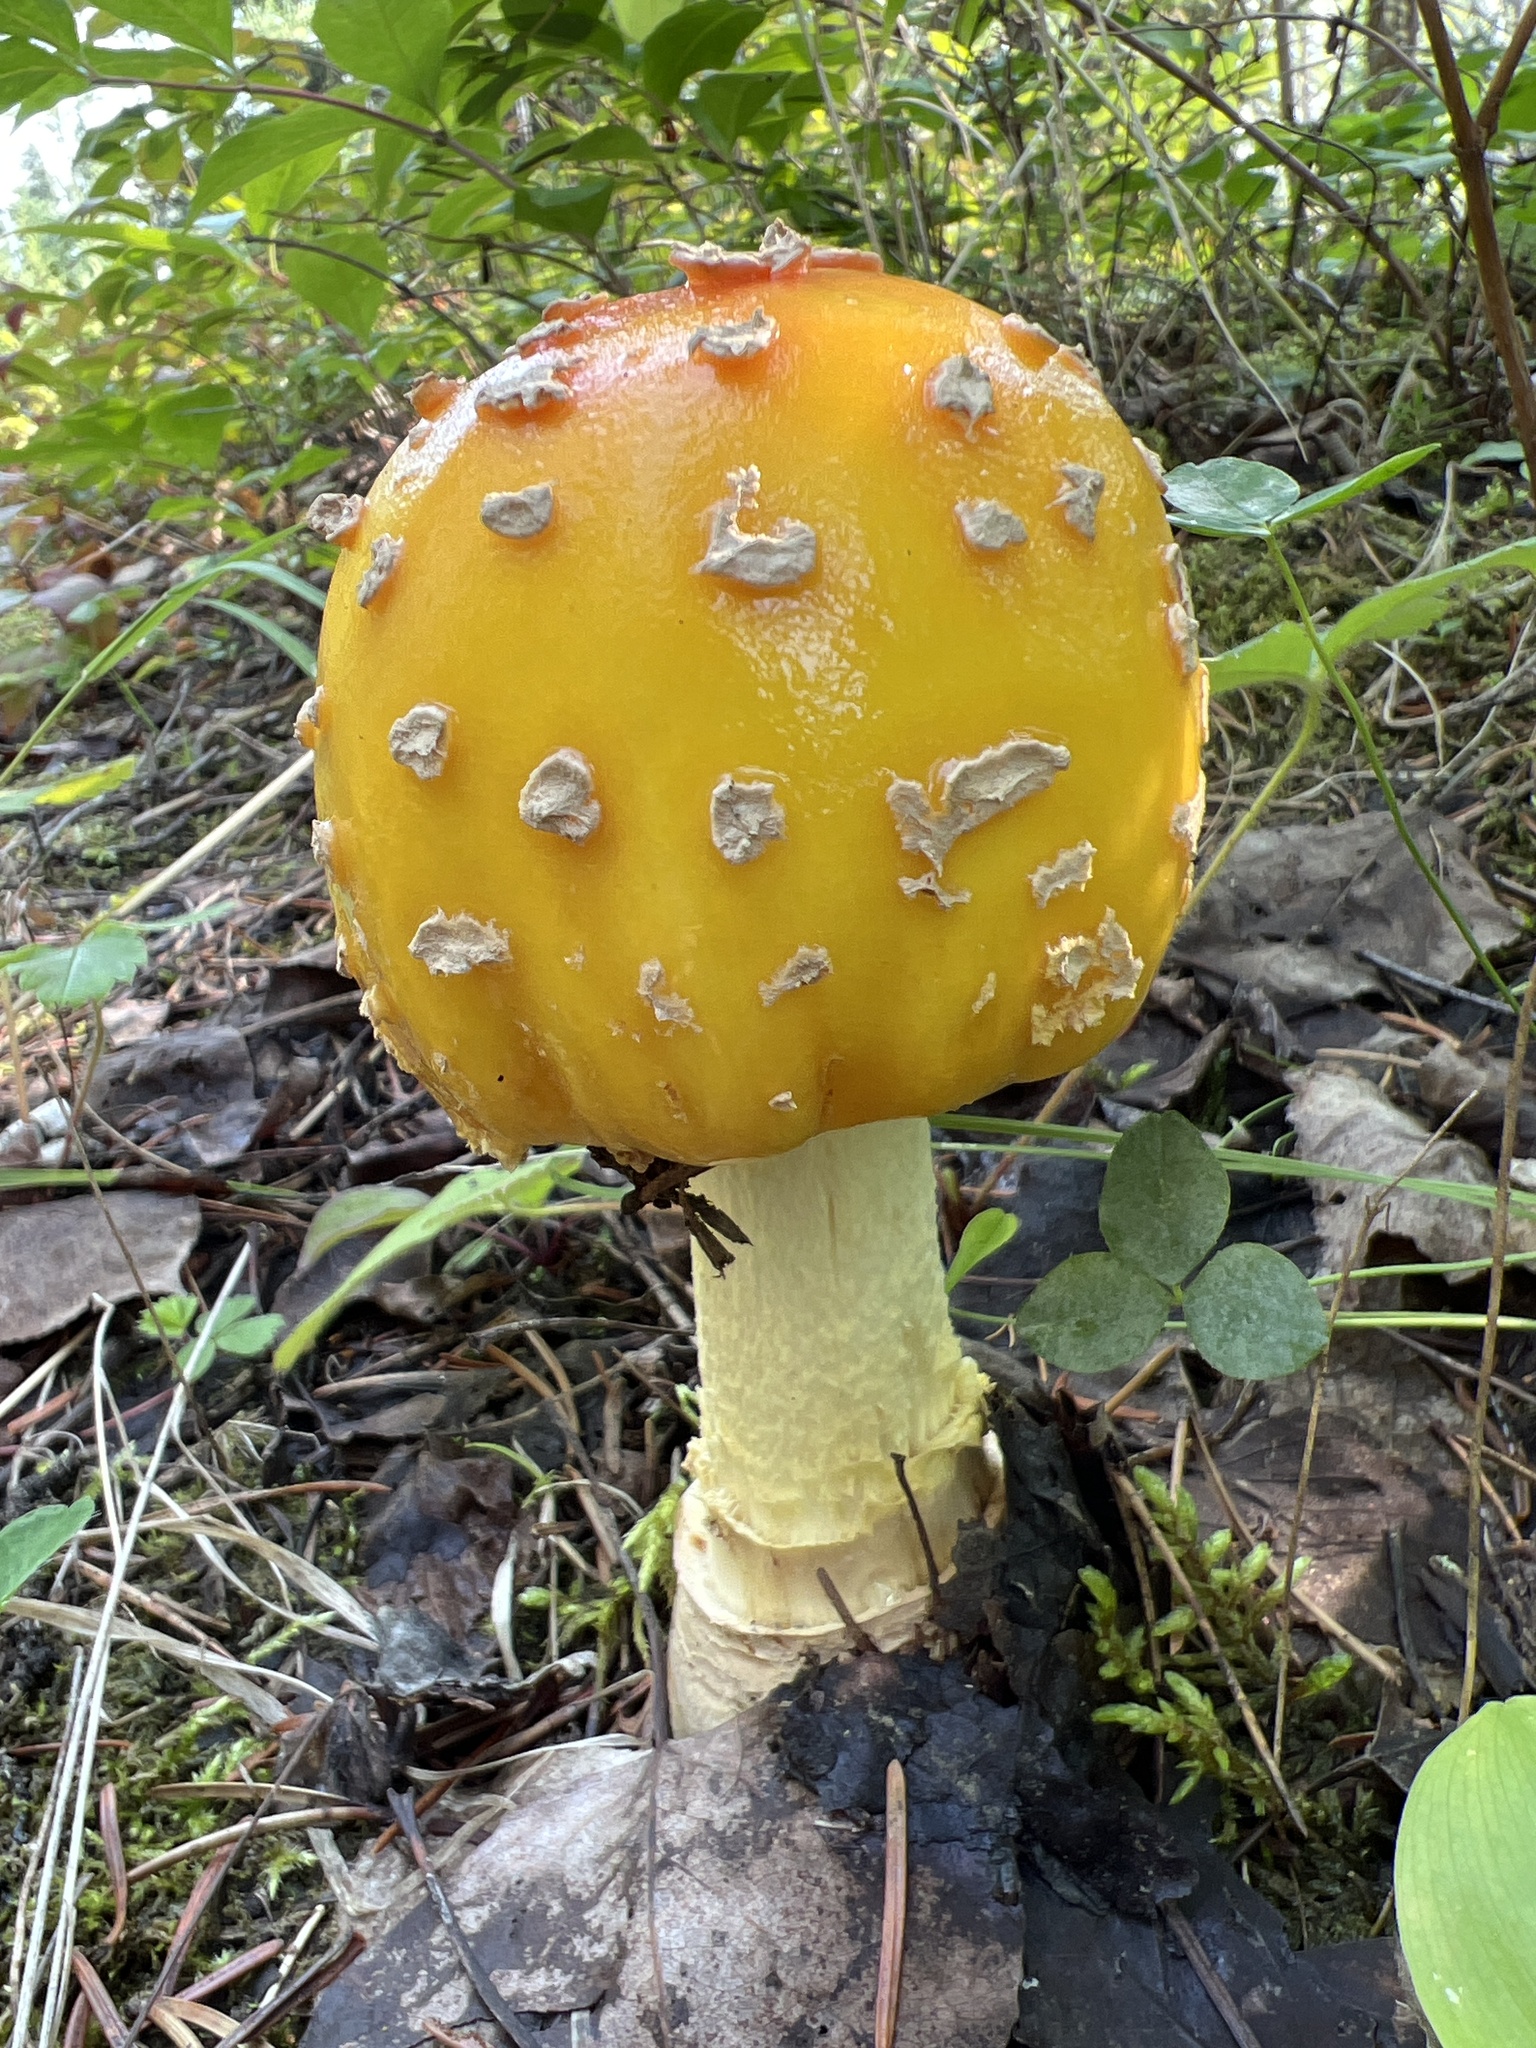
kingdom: Fungi
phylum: Basidiomycota
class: Agaricomycetes
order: Agaricales
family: Amanitaceae
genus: Amanita
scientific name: Amanita muscaria
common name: Fly agaric
